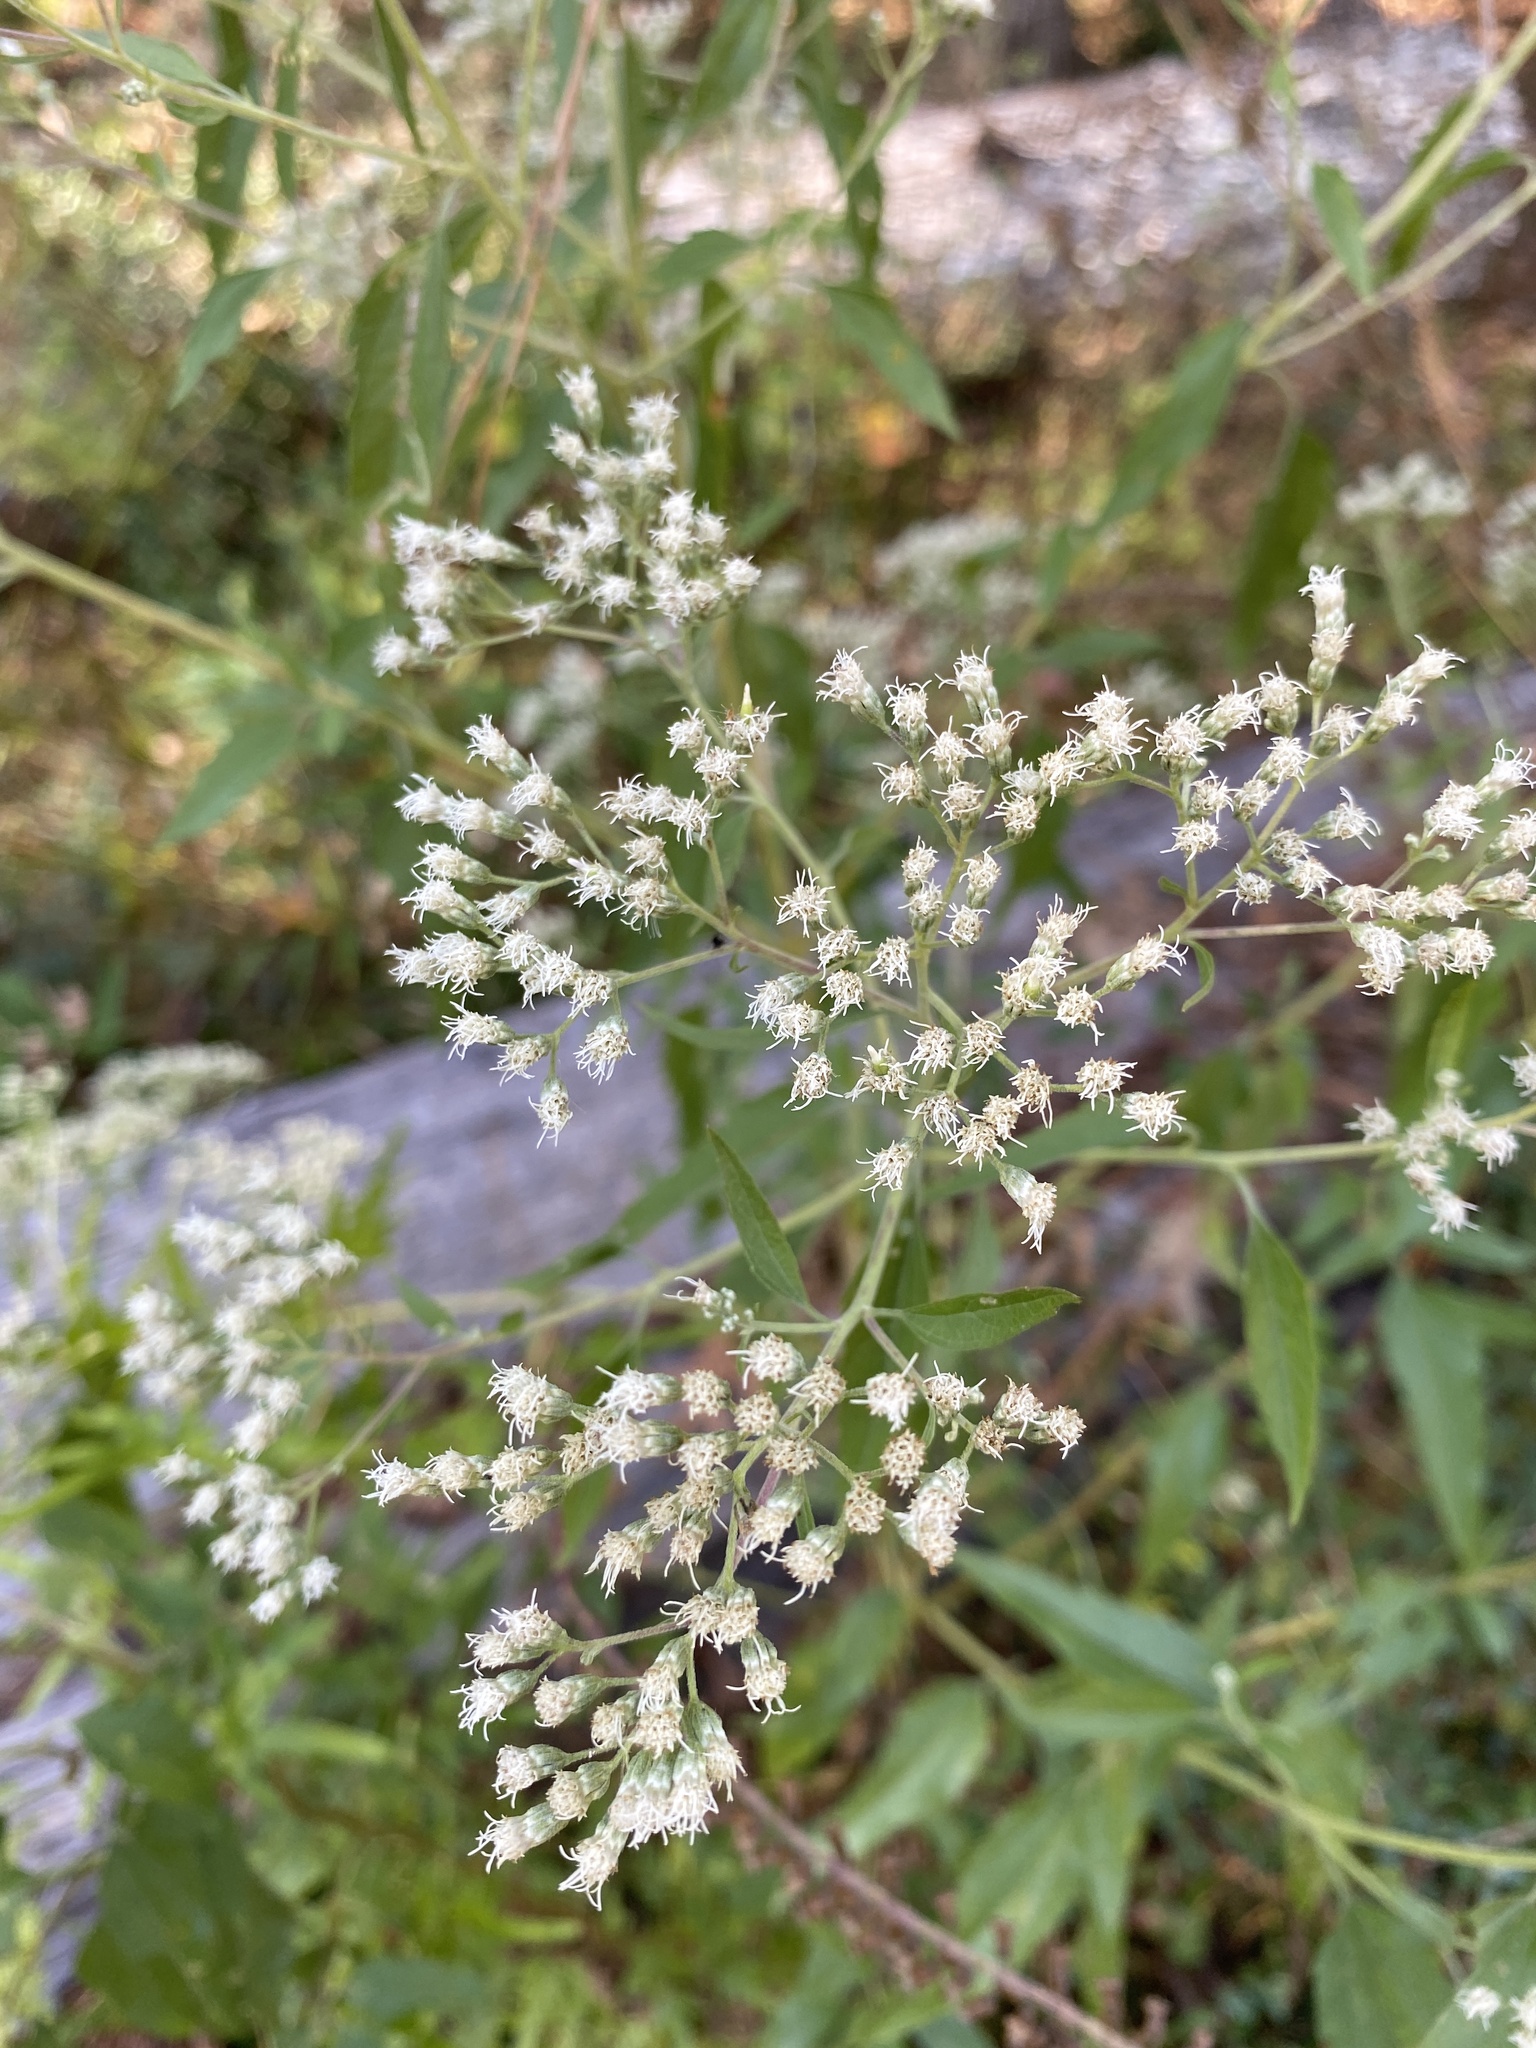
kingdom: Plantae
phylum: Tracheophyta
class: Magnoliopsida
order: Asterales
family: Asteraceae
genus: Eupatorium
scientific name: Eupatorium serotinum
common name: Late boneset
